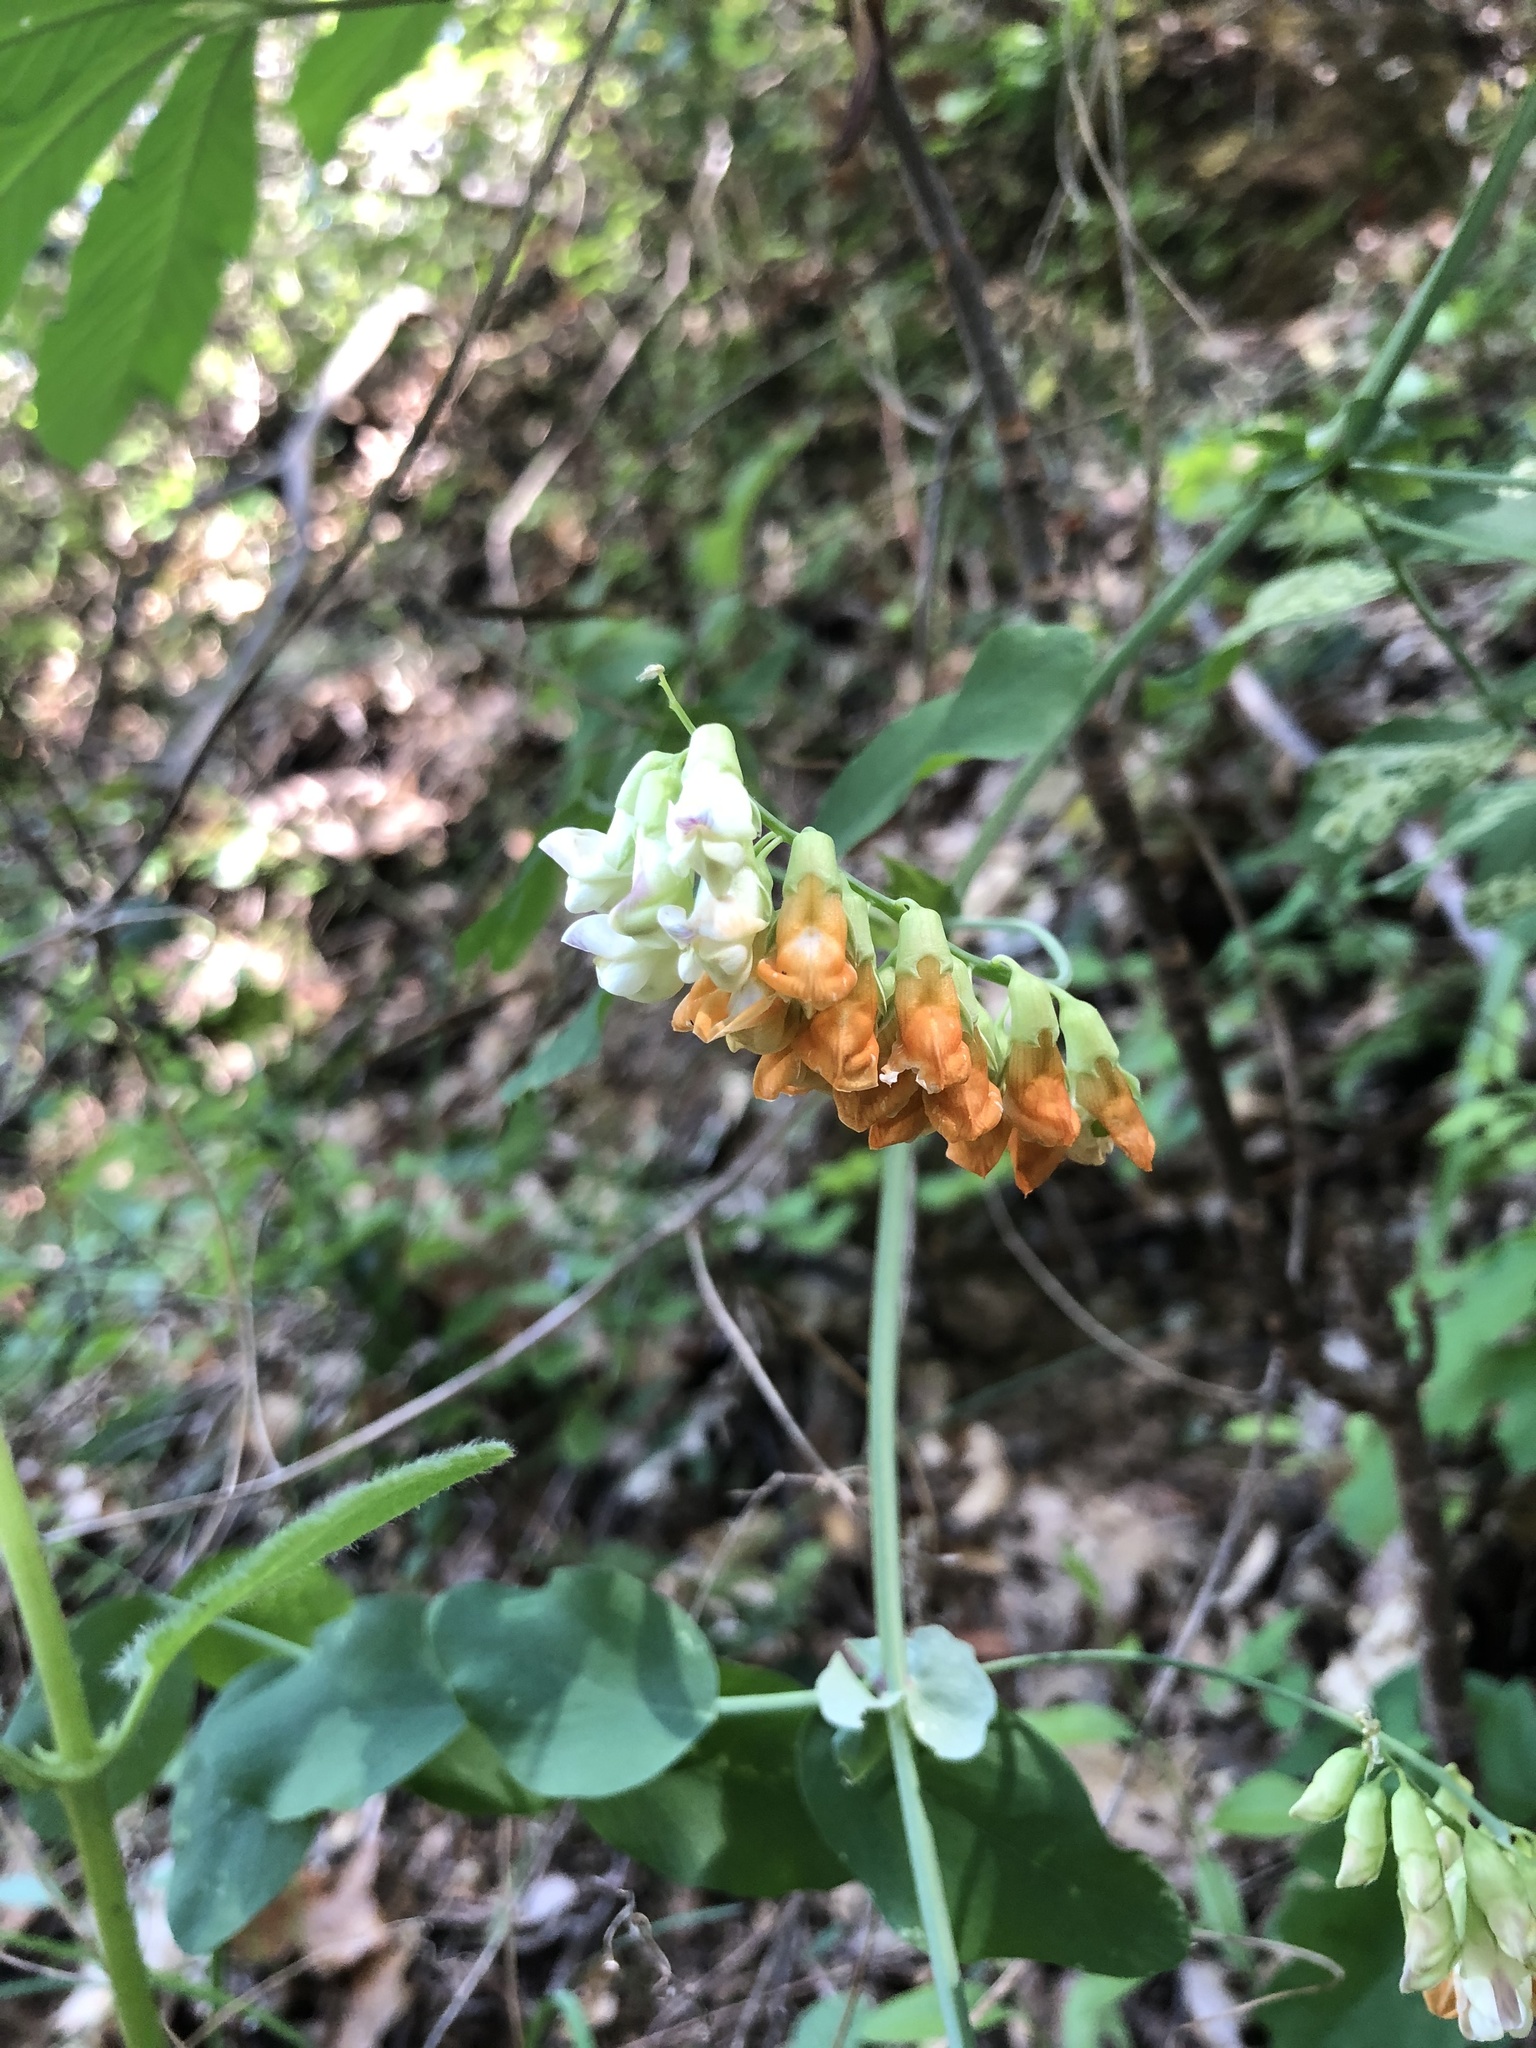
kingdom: Plantae
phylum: Tracheophyta
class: Magnoliopsida
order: Fabales
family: Fabaceae
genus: Lathyrus
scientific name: Lathyrus sulphureus
